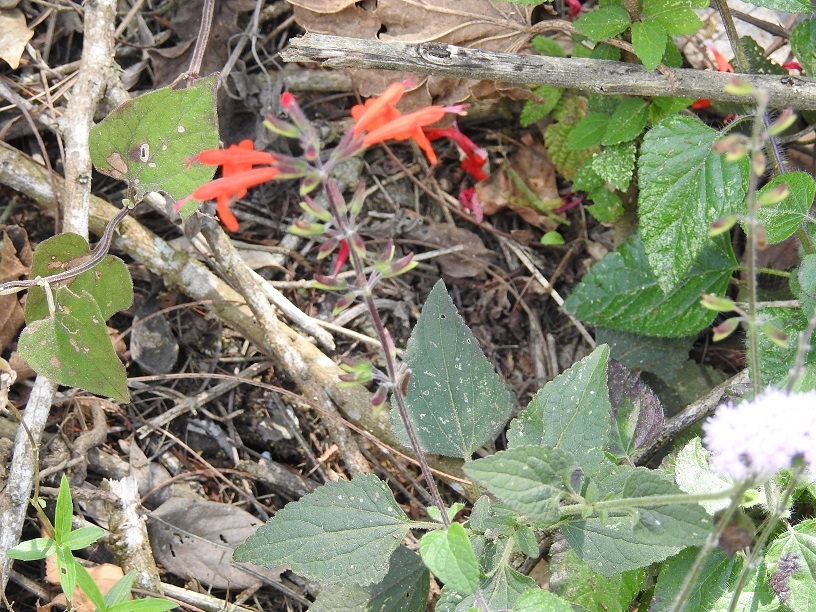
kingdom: Plantae
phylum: Tracheophyta
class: Magnoliopsida
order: Lamiales
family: Lamiaceae
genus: Salvia
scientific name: Salvia coccinea
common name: Blood sage
